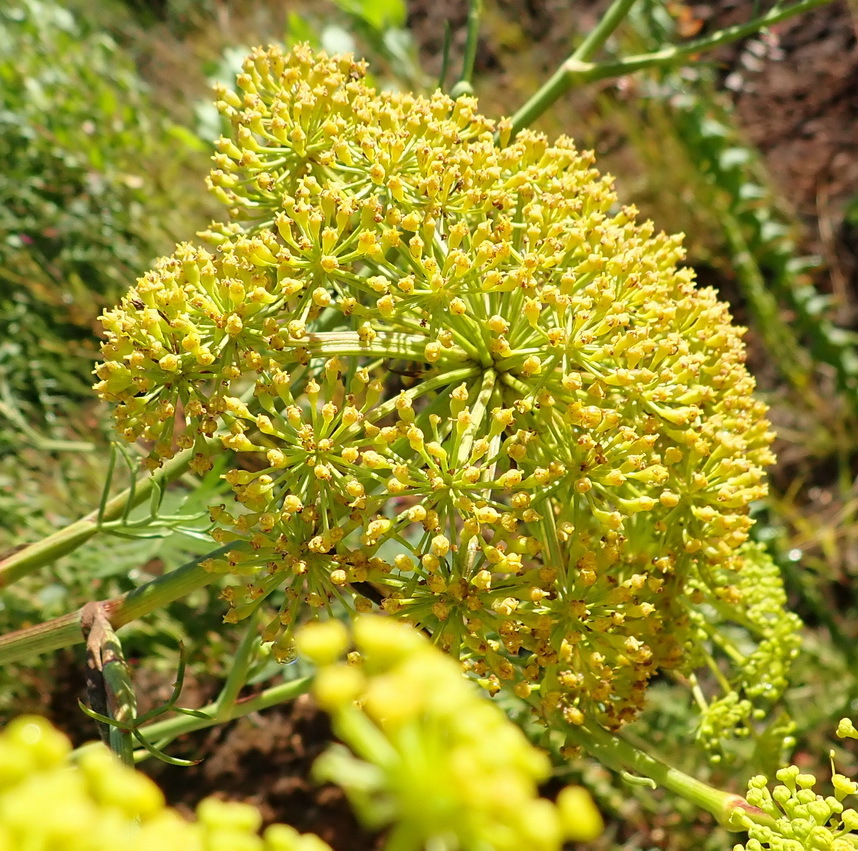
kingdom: Plantae
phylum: Tracheophyta
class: Magnoliopsida
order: Apiales
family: Apiaceae
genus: Notobubon
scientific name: Notobubon ferulaceum
